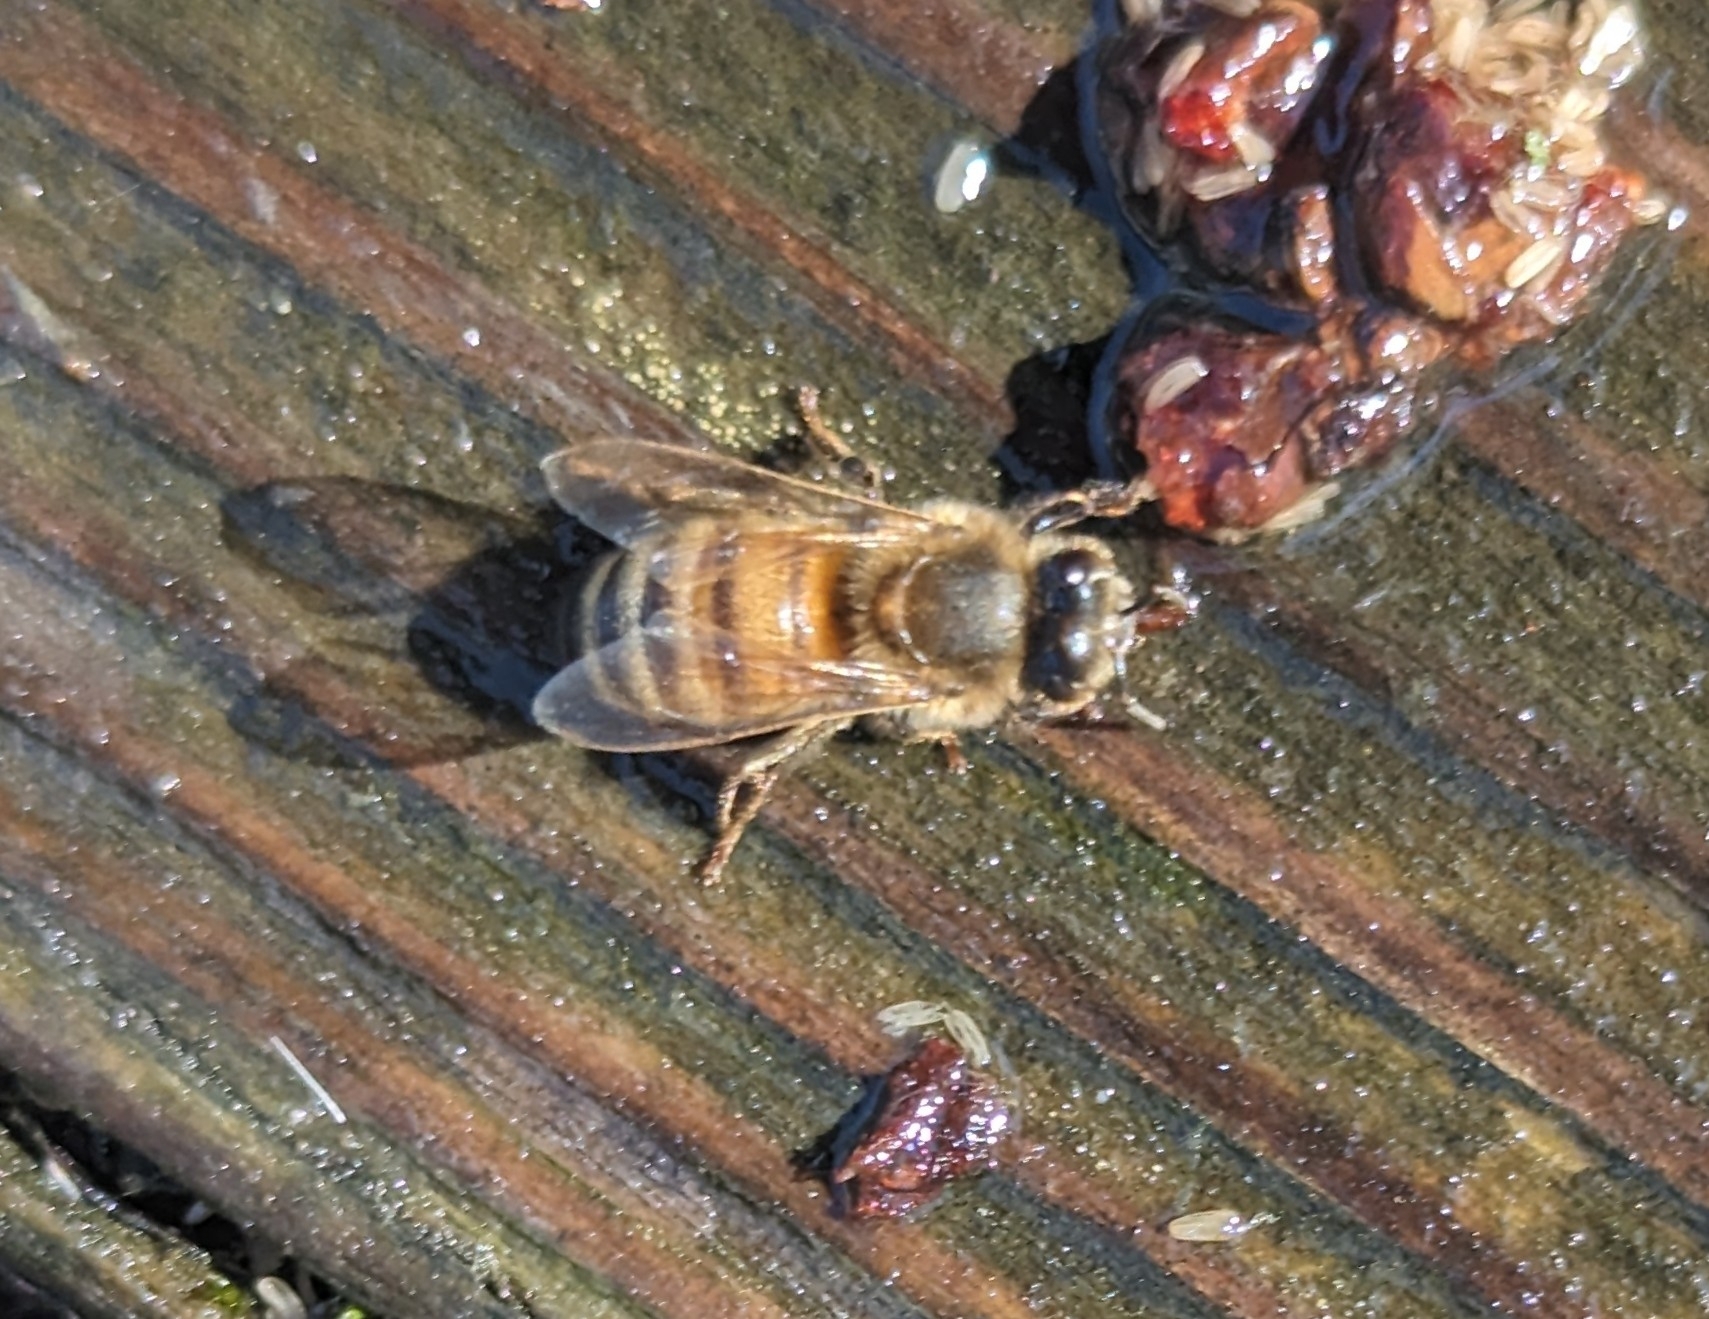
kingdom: Animalia
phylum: Arthropoda
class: Insecta
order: Hymenoptera
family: Apidae
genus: Apis
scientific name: Apis mellifera
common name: Honey bee
